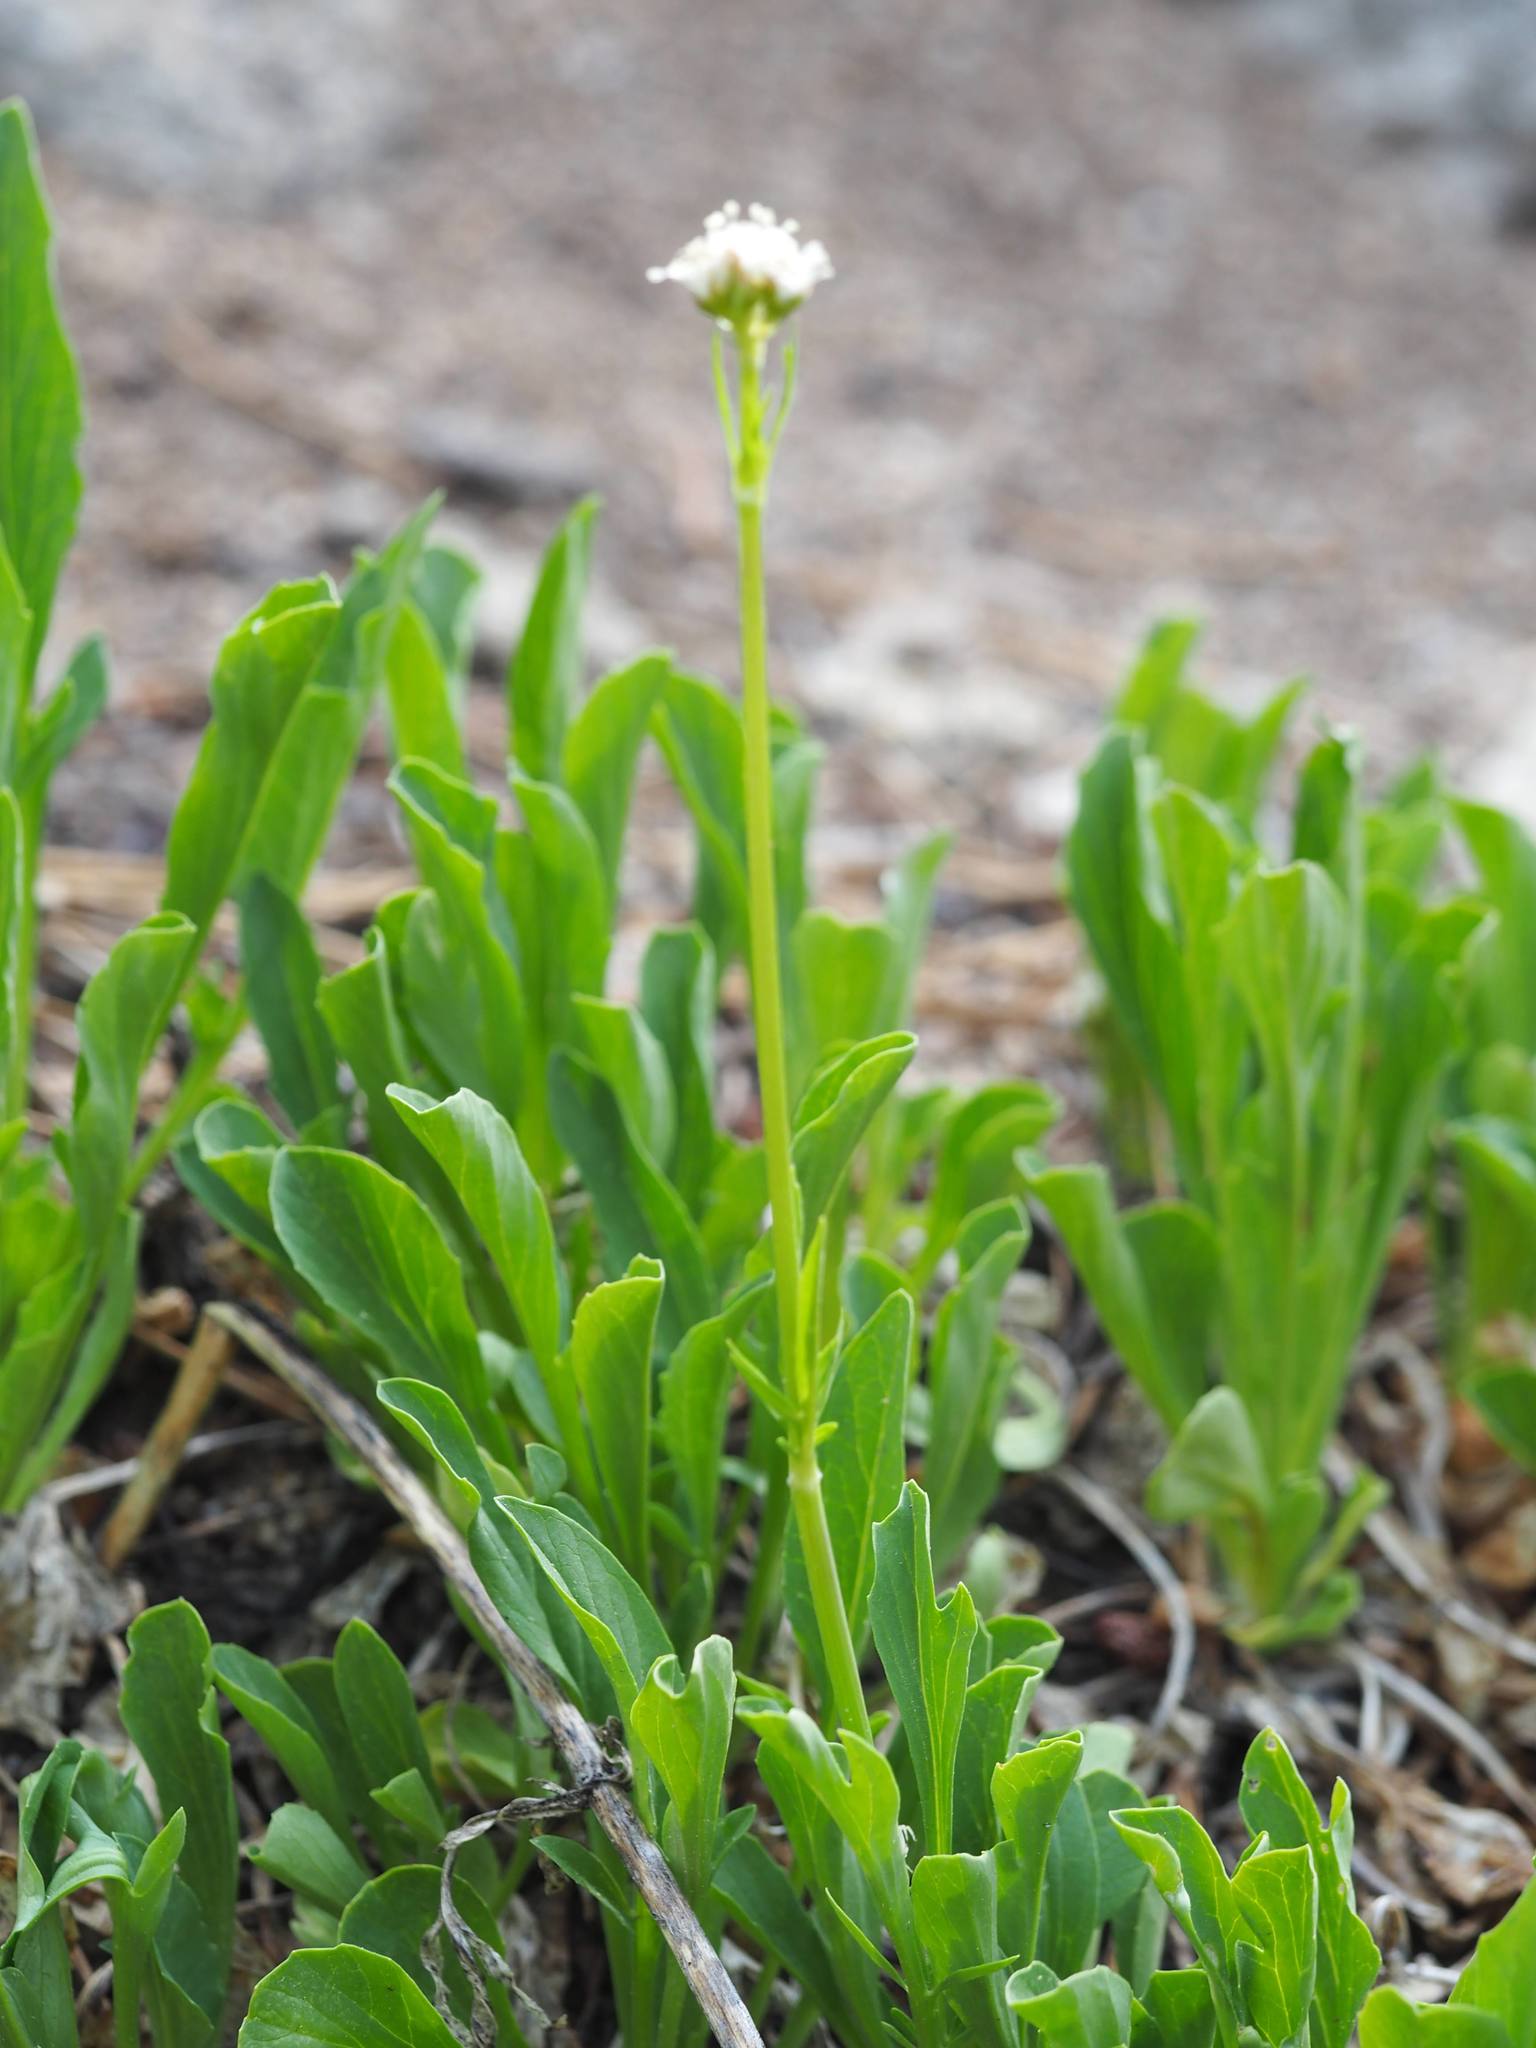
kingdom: Plantae
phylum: Tracheophyta
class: Magnoliopsida
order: Dipsacales
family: Caprifoliaceae
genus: Valeriana
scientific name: Valeriana californica
